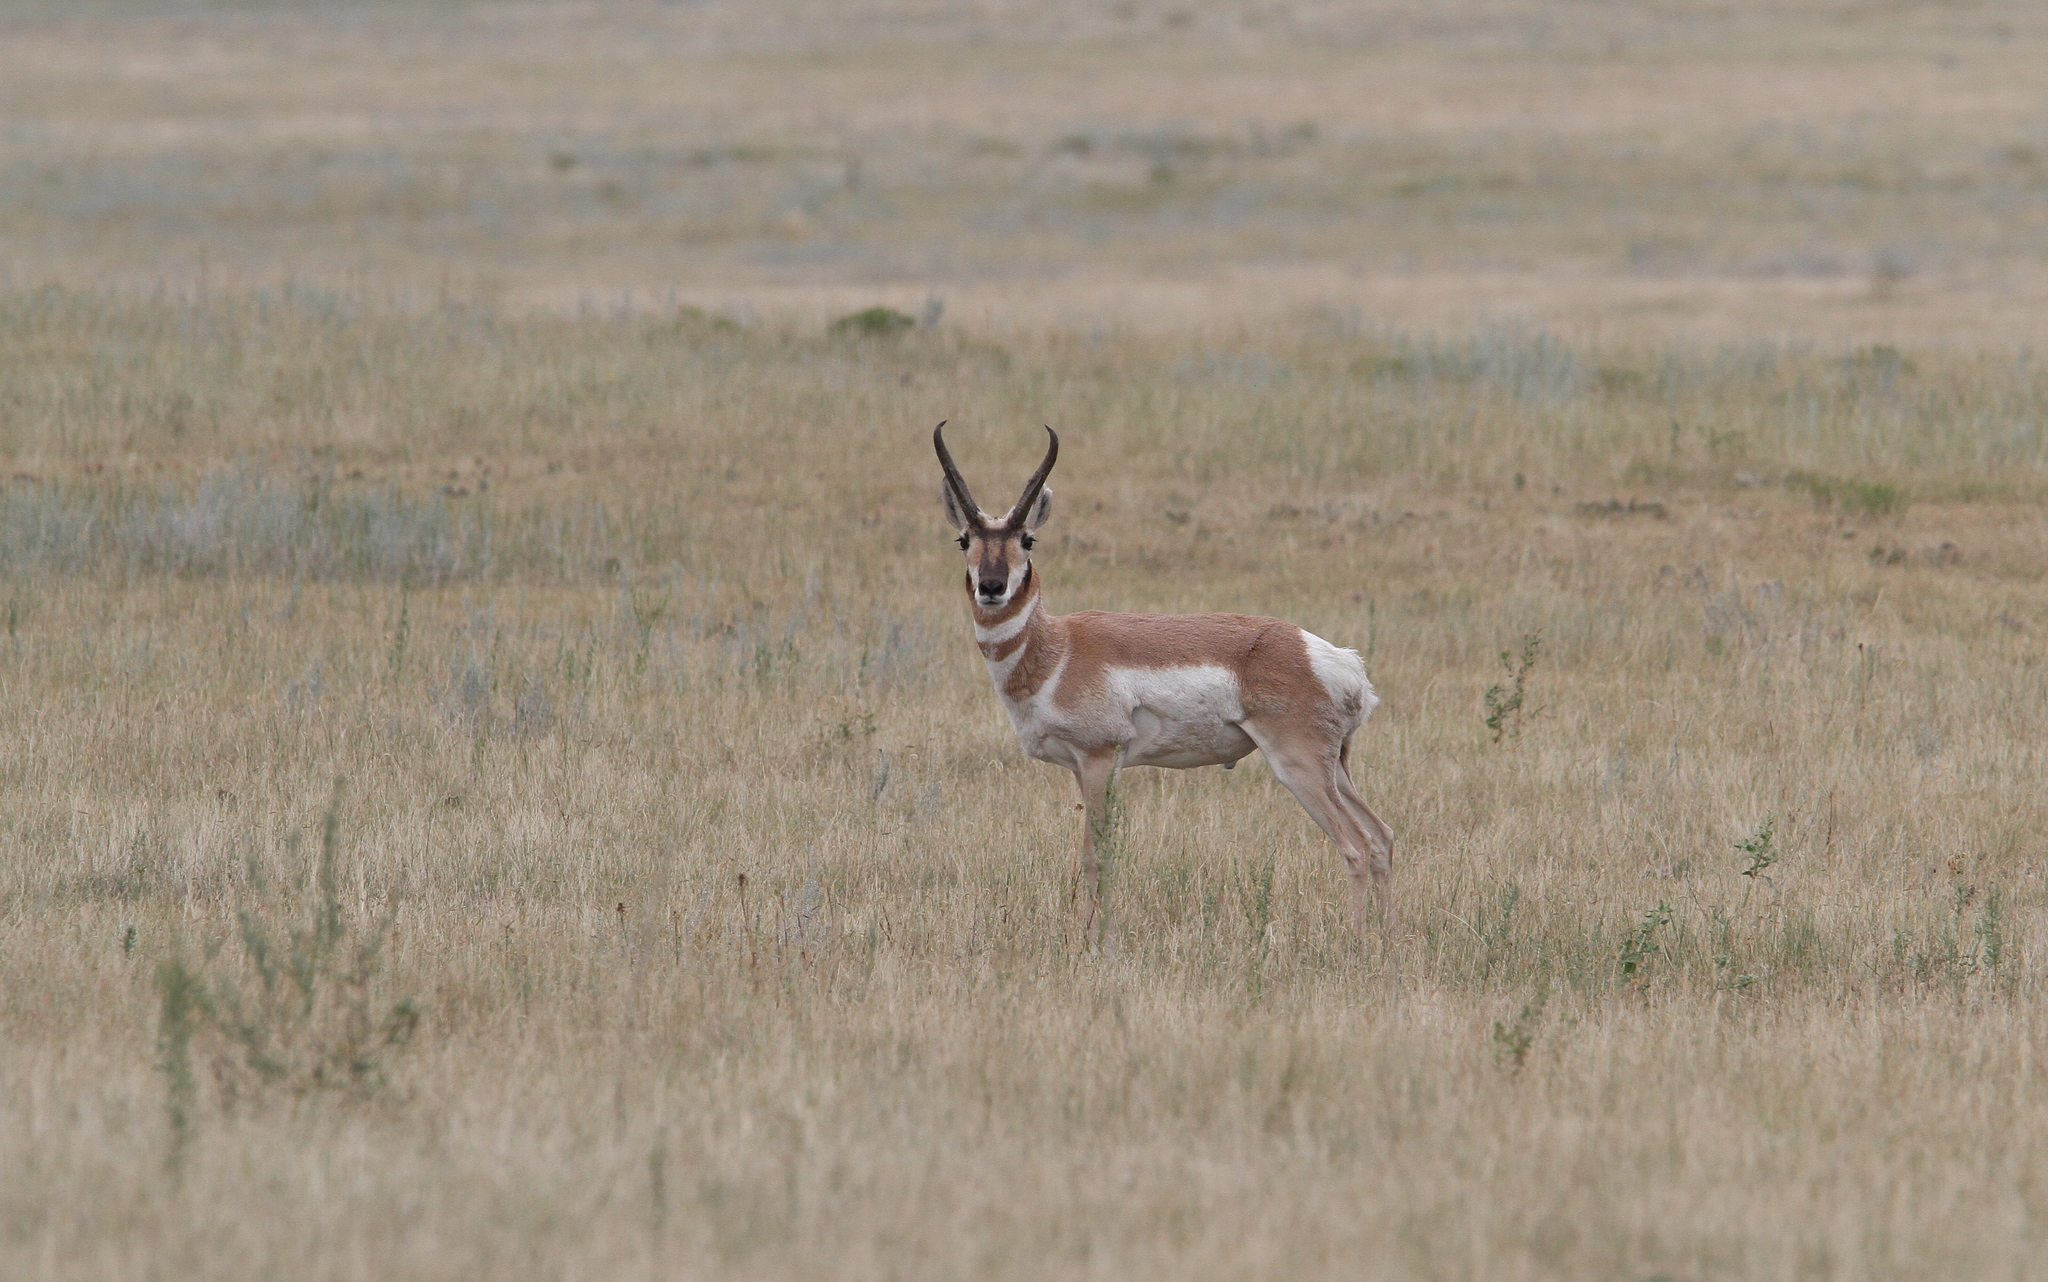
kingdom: Animalia
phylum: Chordata
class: Mammalia
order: Artiodactyla
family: Antilocapridae
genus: Antilocapra
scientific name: Antilocapra americana
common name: Pronghorn
